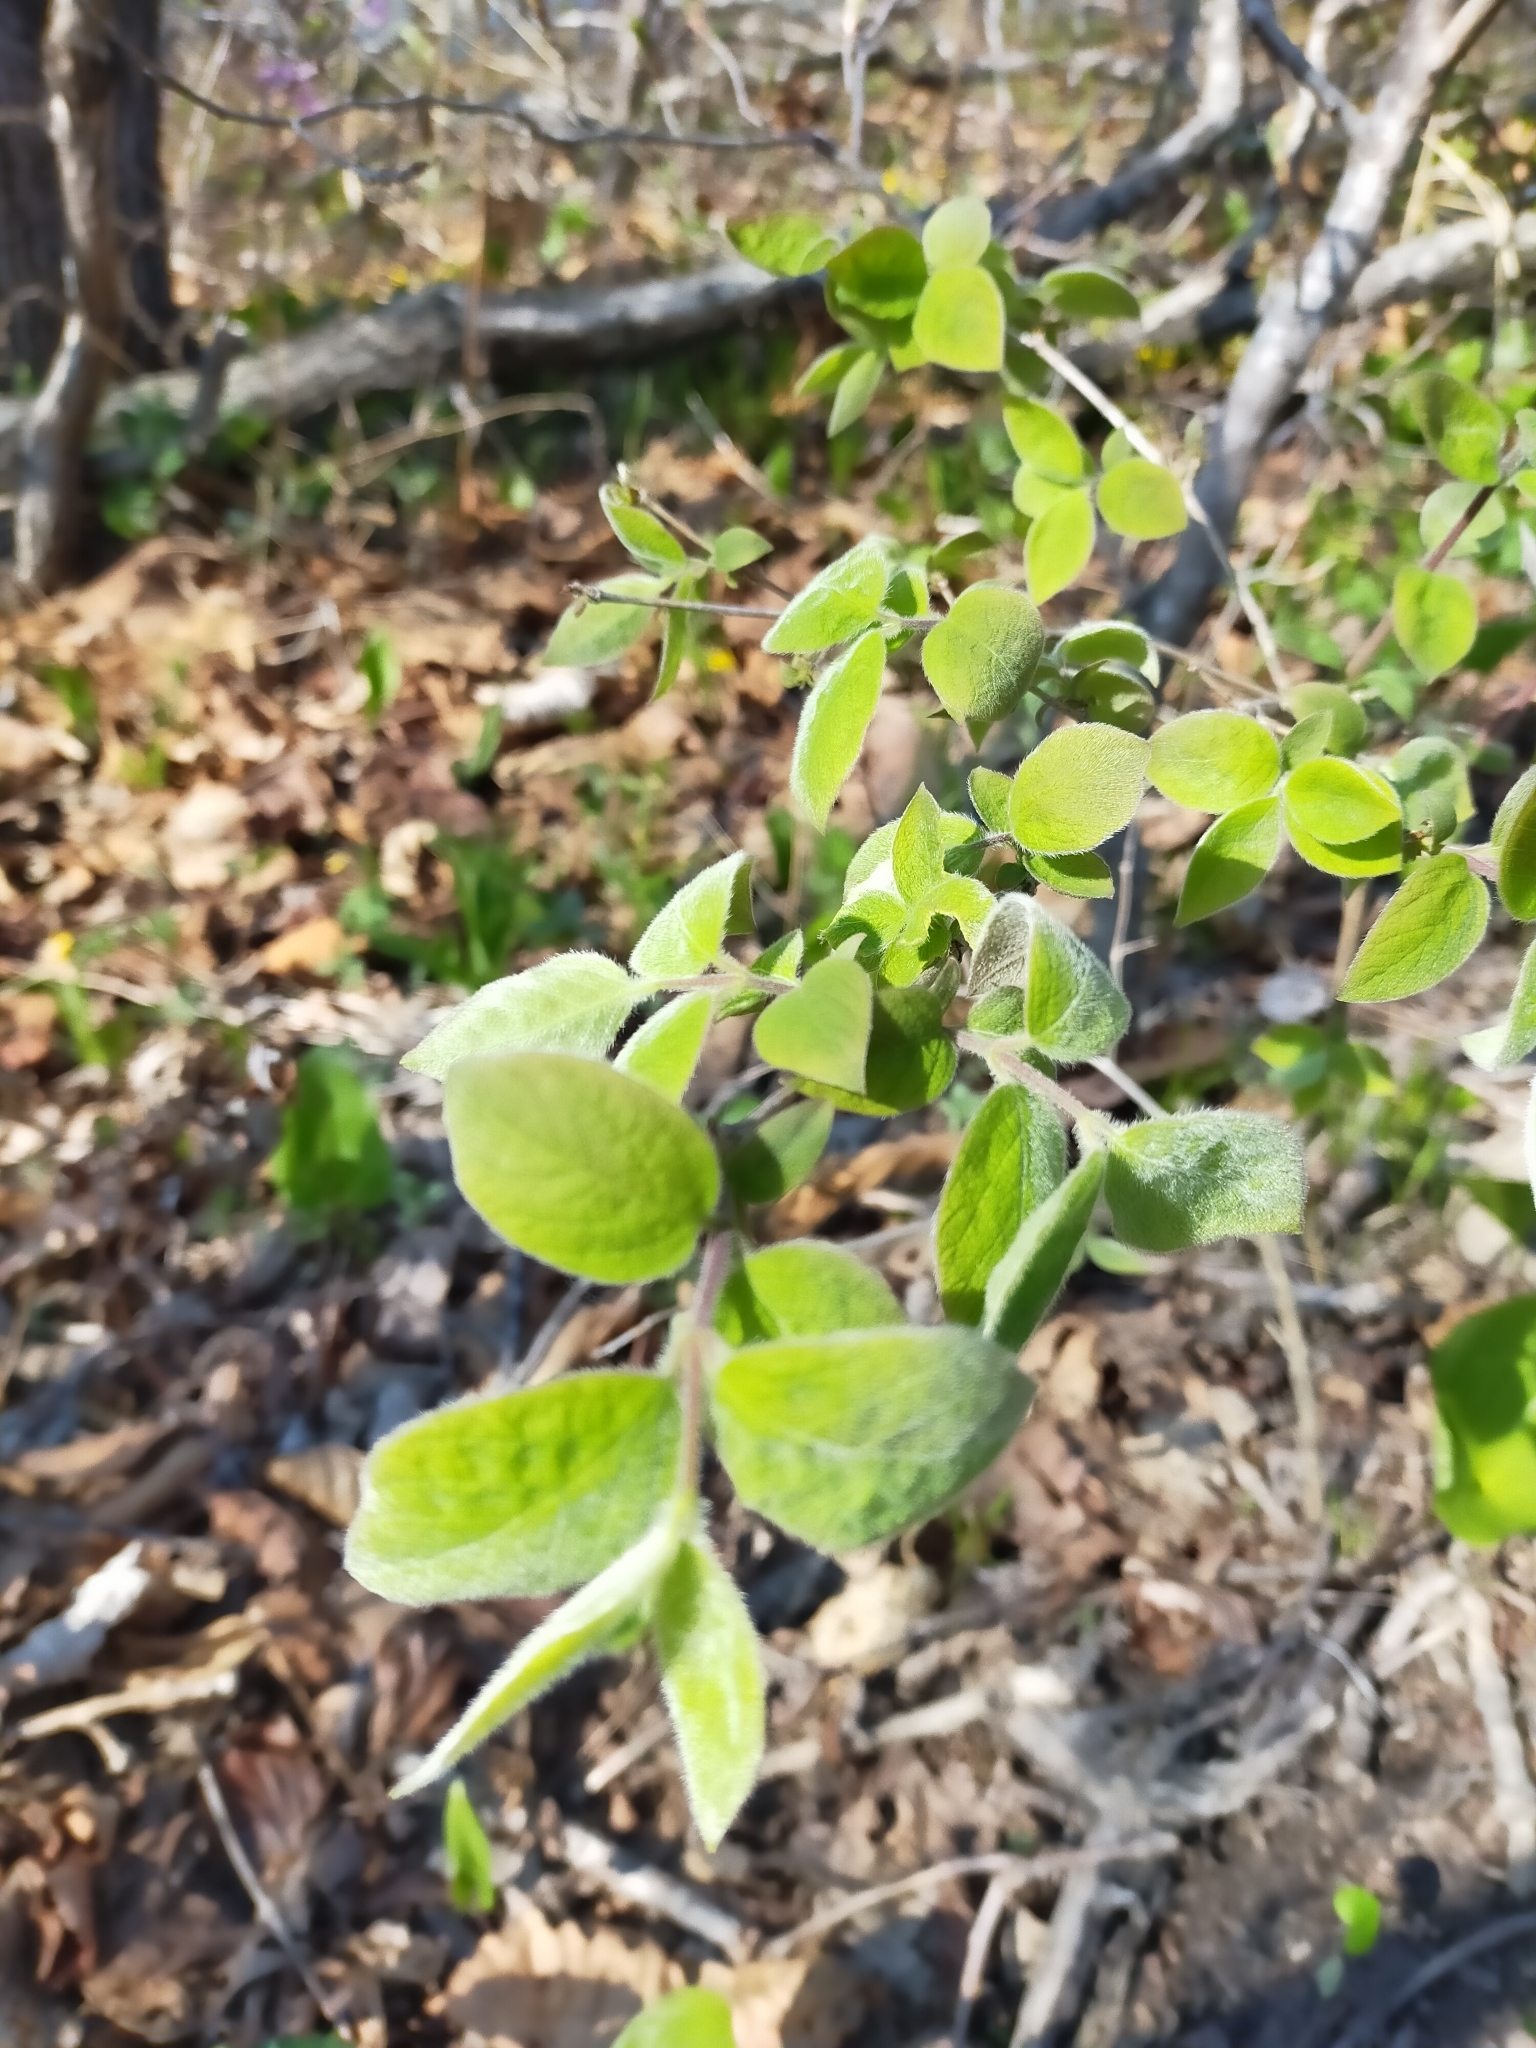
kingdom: Plantae
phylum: Tracheophyta
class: Magnoliopsida
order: Dipsacales
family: Caprifoliaceae
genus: Lonicera
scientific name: Lonicera praeflorens
